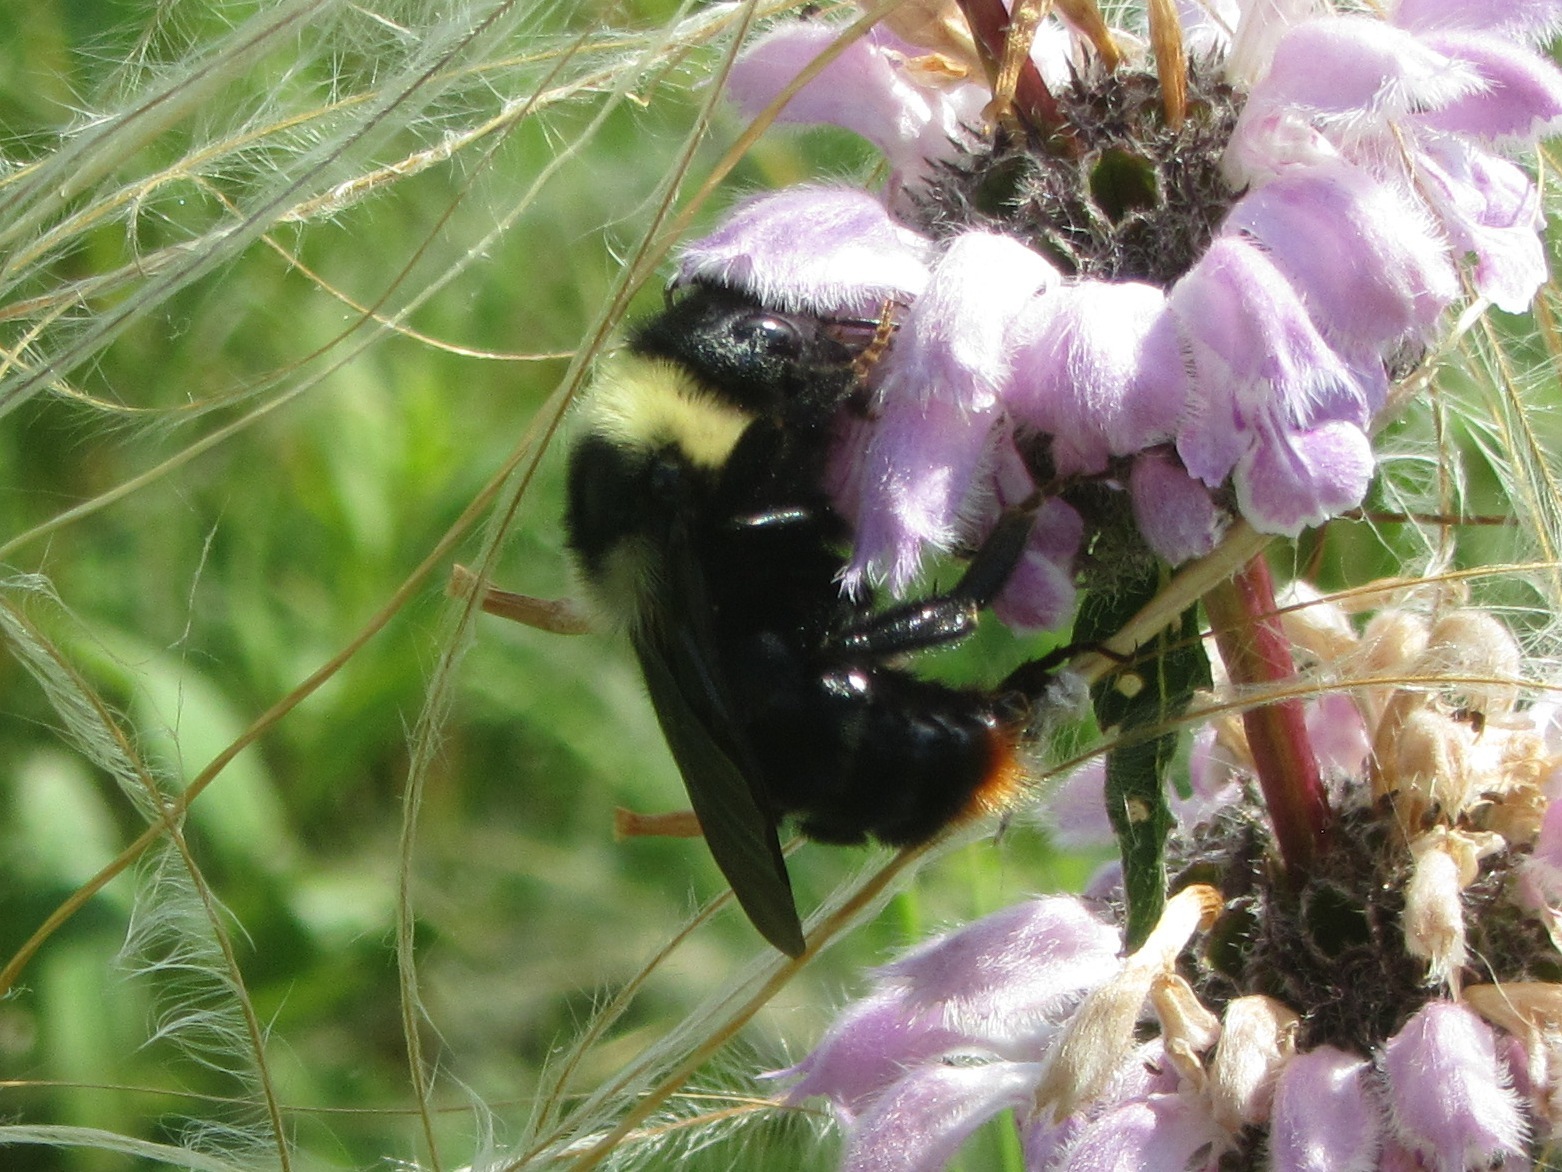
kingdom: Animalia
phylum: Arthropoda
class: Insecta
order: Hymenoptera
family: Apidae
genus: Bombus
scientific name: Bombus rupestris
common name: Hill cuckoo-bee
